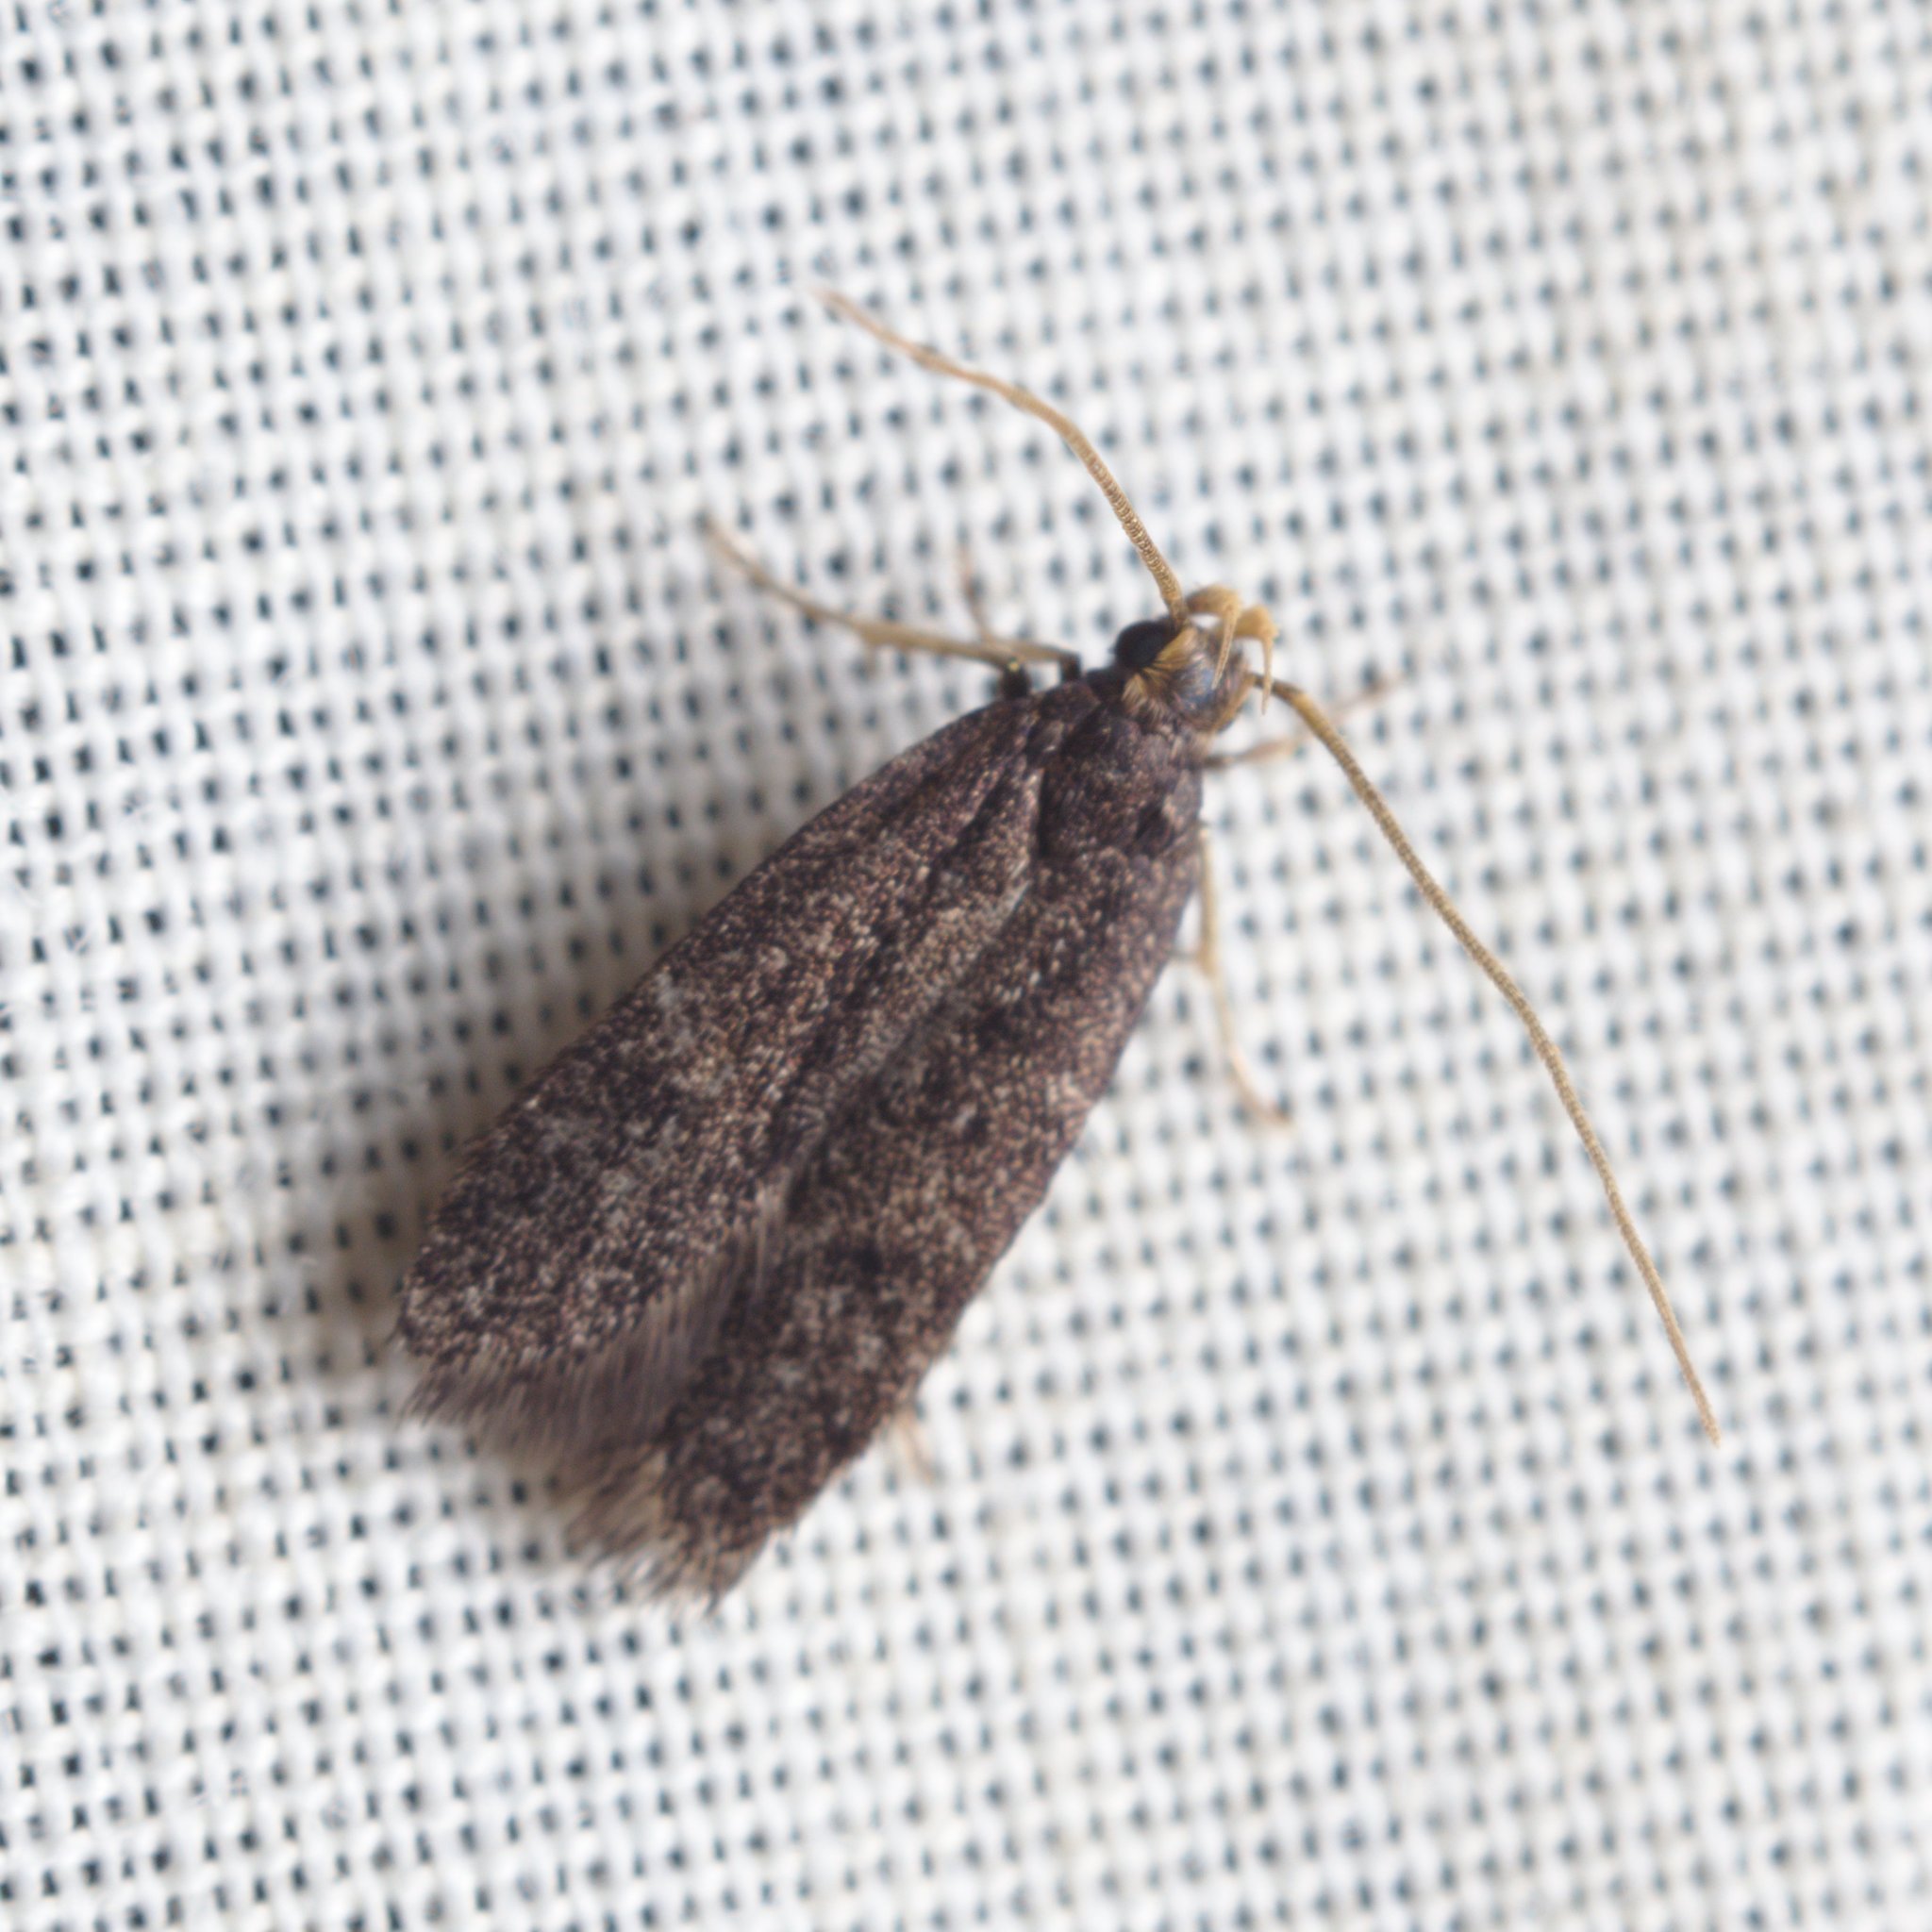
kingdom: Animalia
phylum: Arthropoda
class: Insecta
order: Lepidoptera
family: Lecithoceridae
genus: Lecithocera
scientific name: Lecithocera micromela
